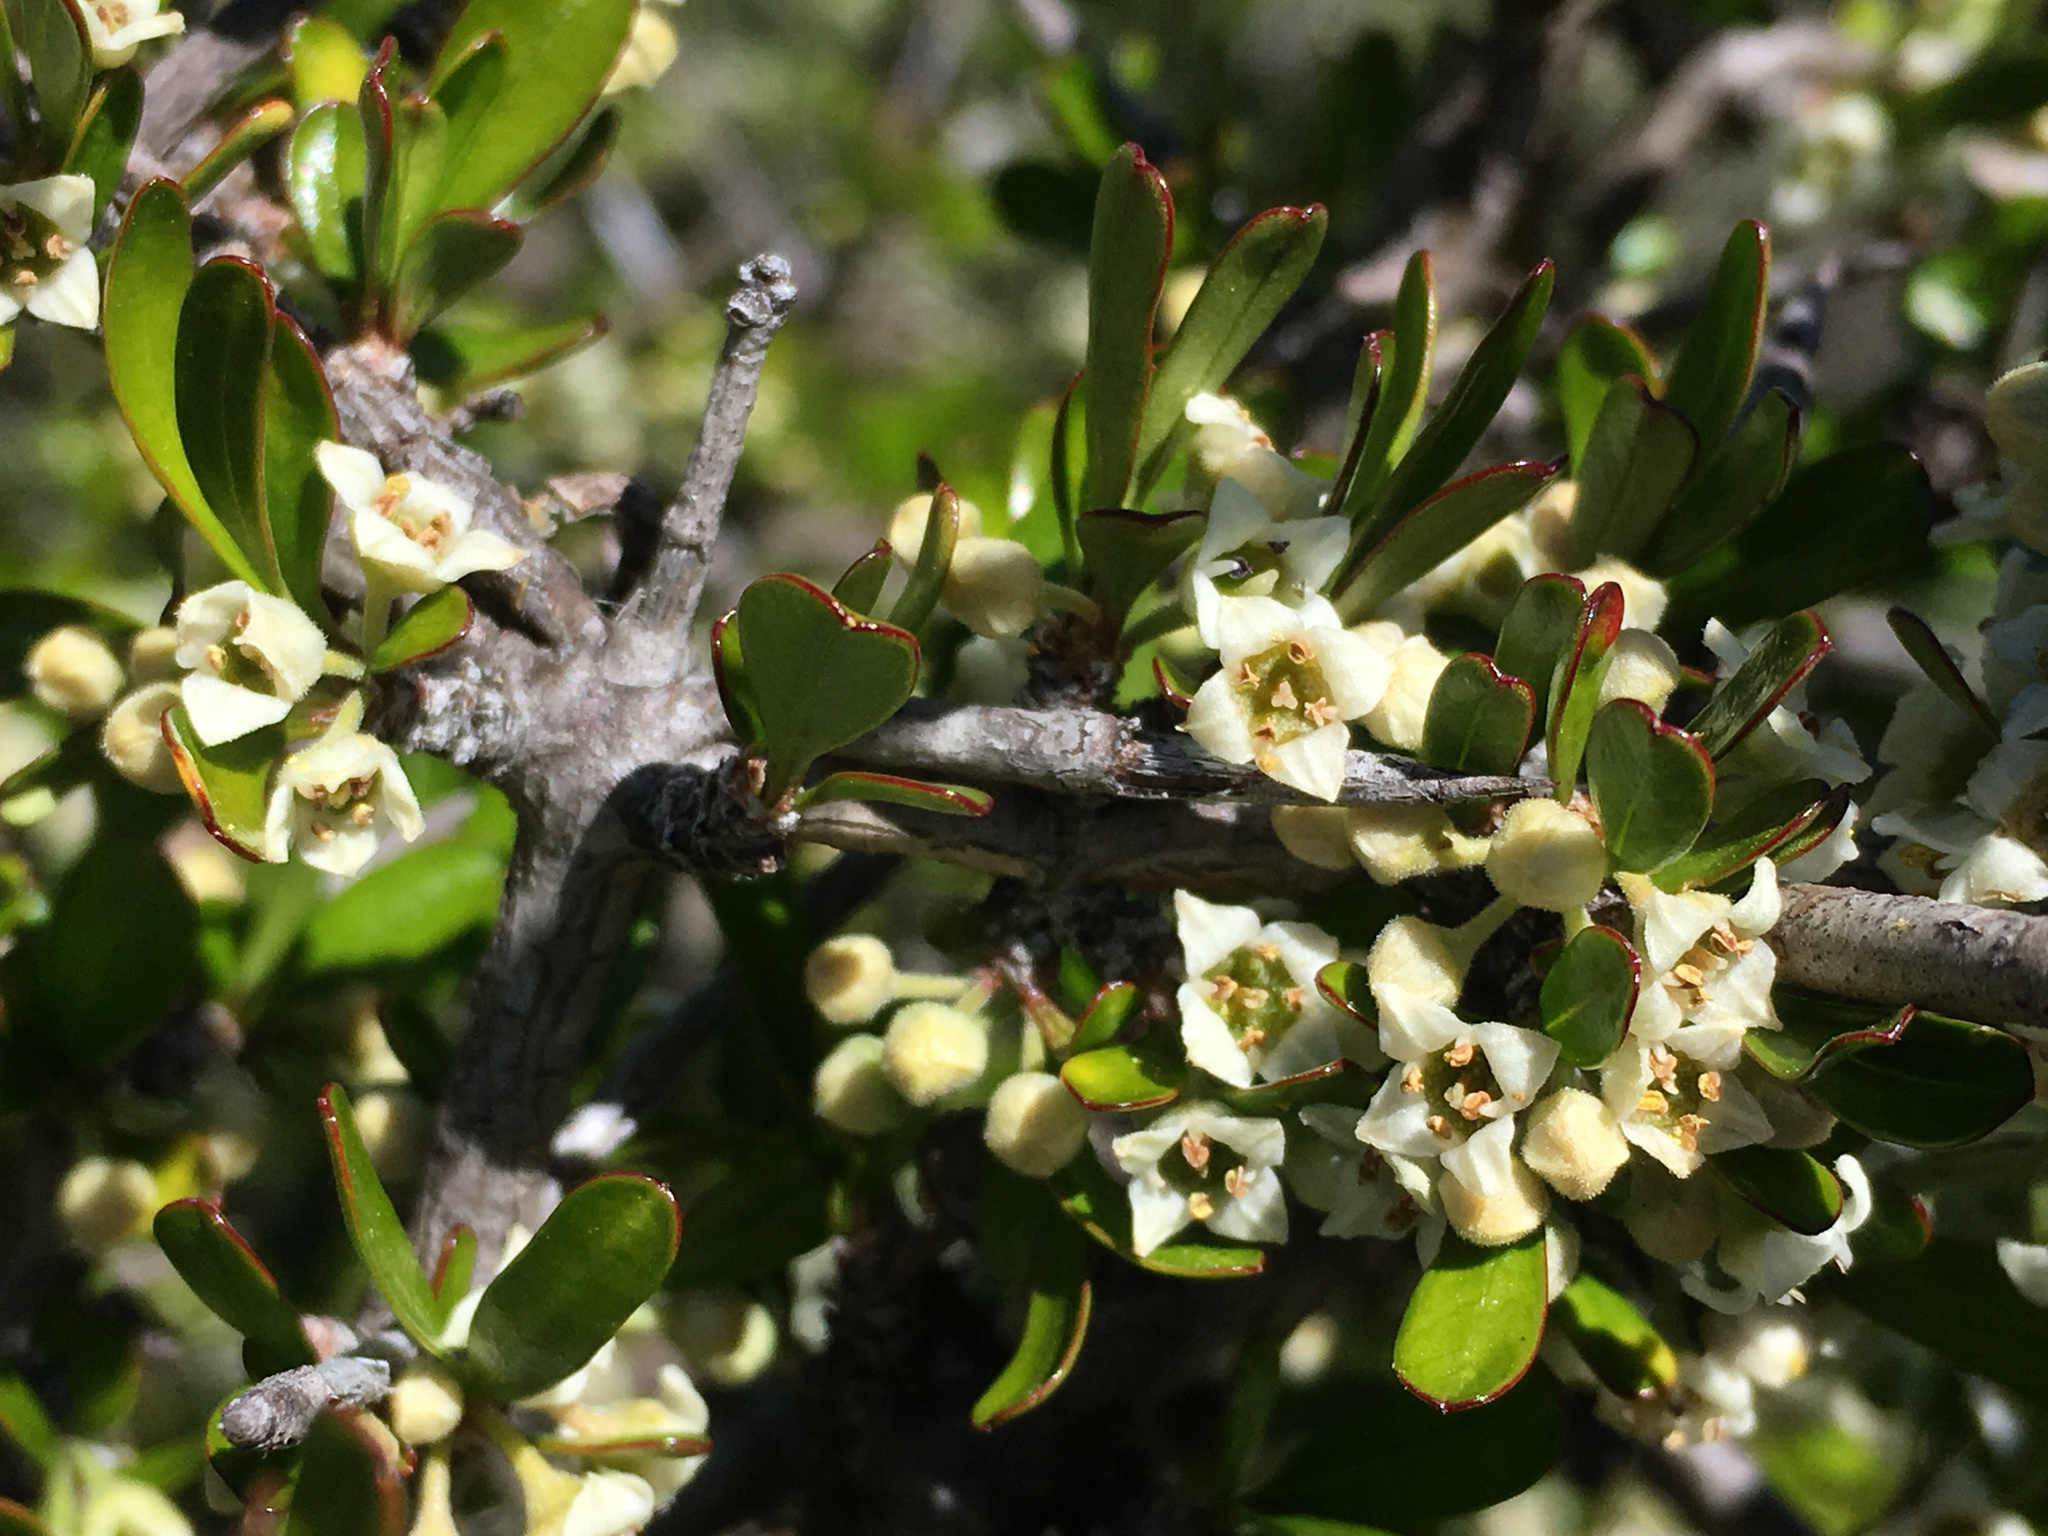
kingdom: Plantae
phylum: Tracheophyta
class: Magnoliopsida
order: Rosales
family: Rhamnaceae
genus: Discaria
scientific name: Discaria toumatou
